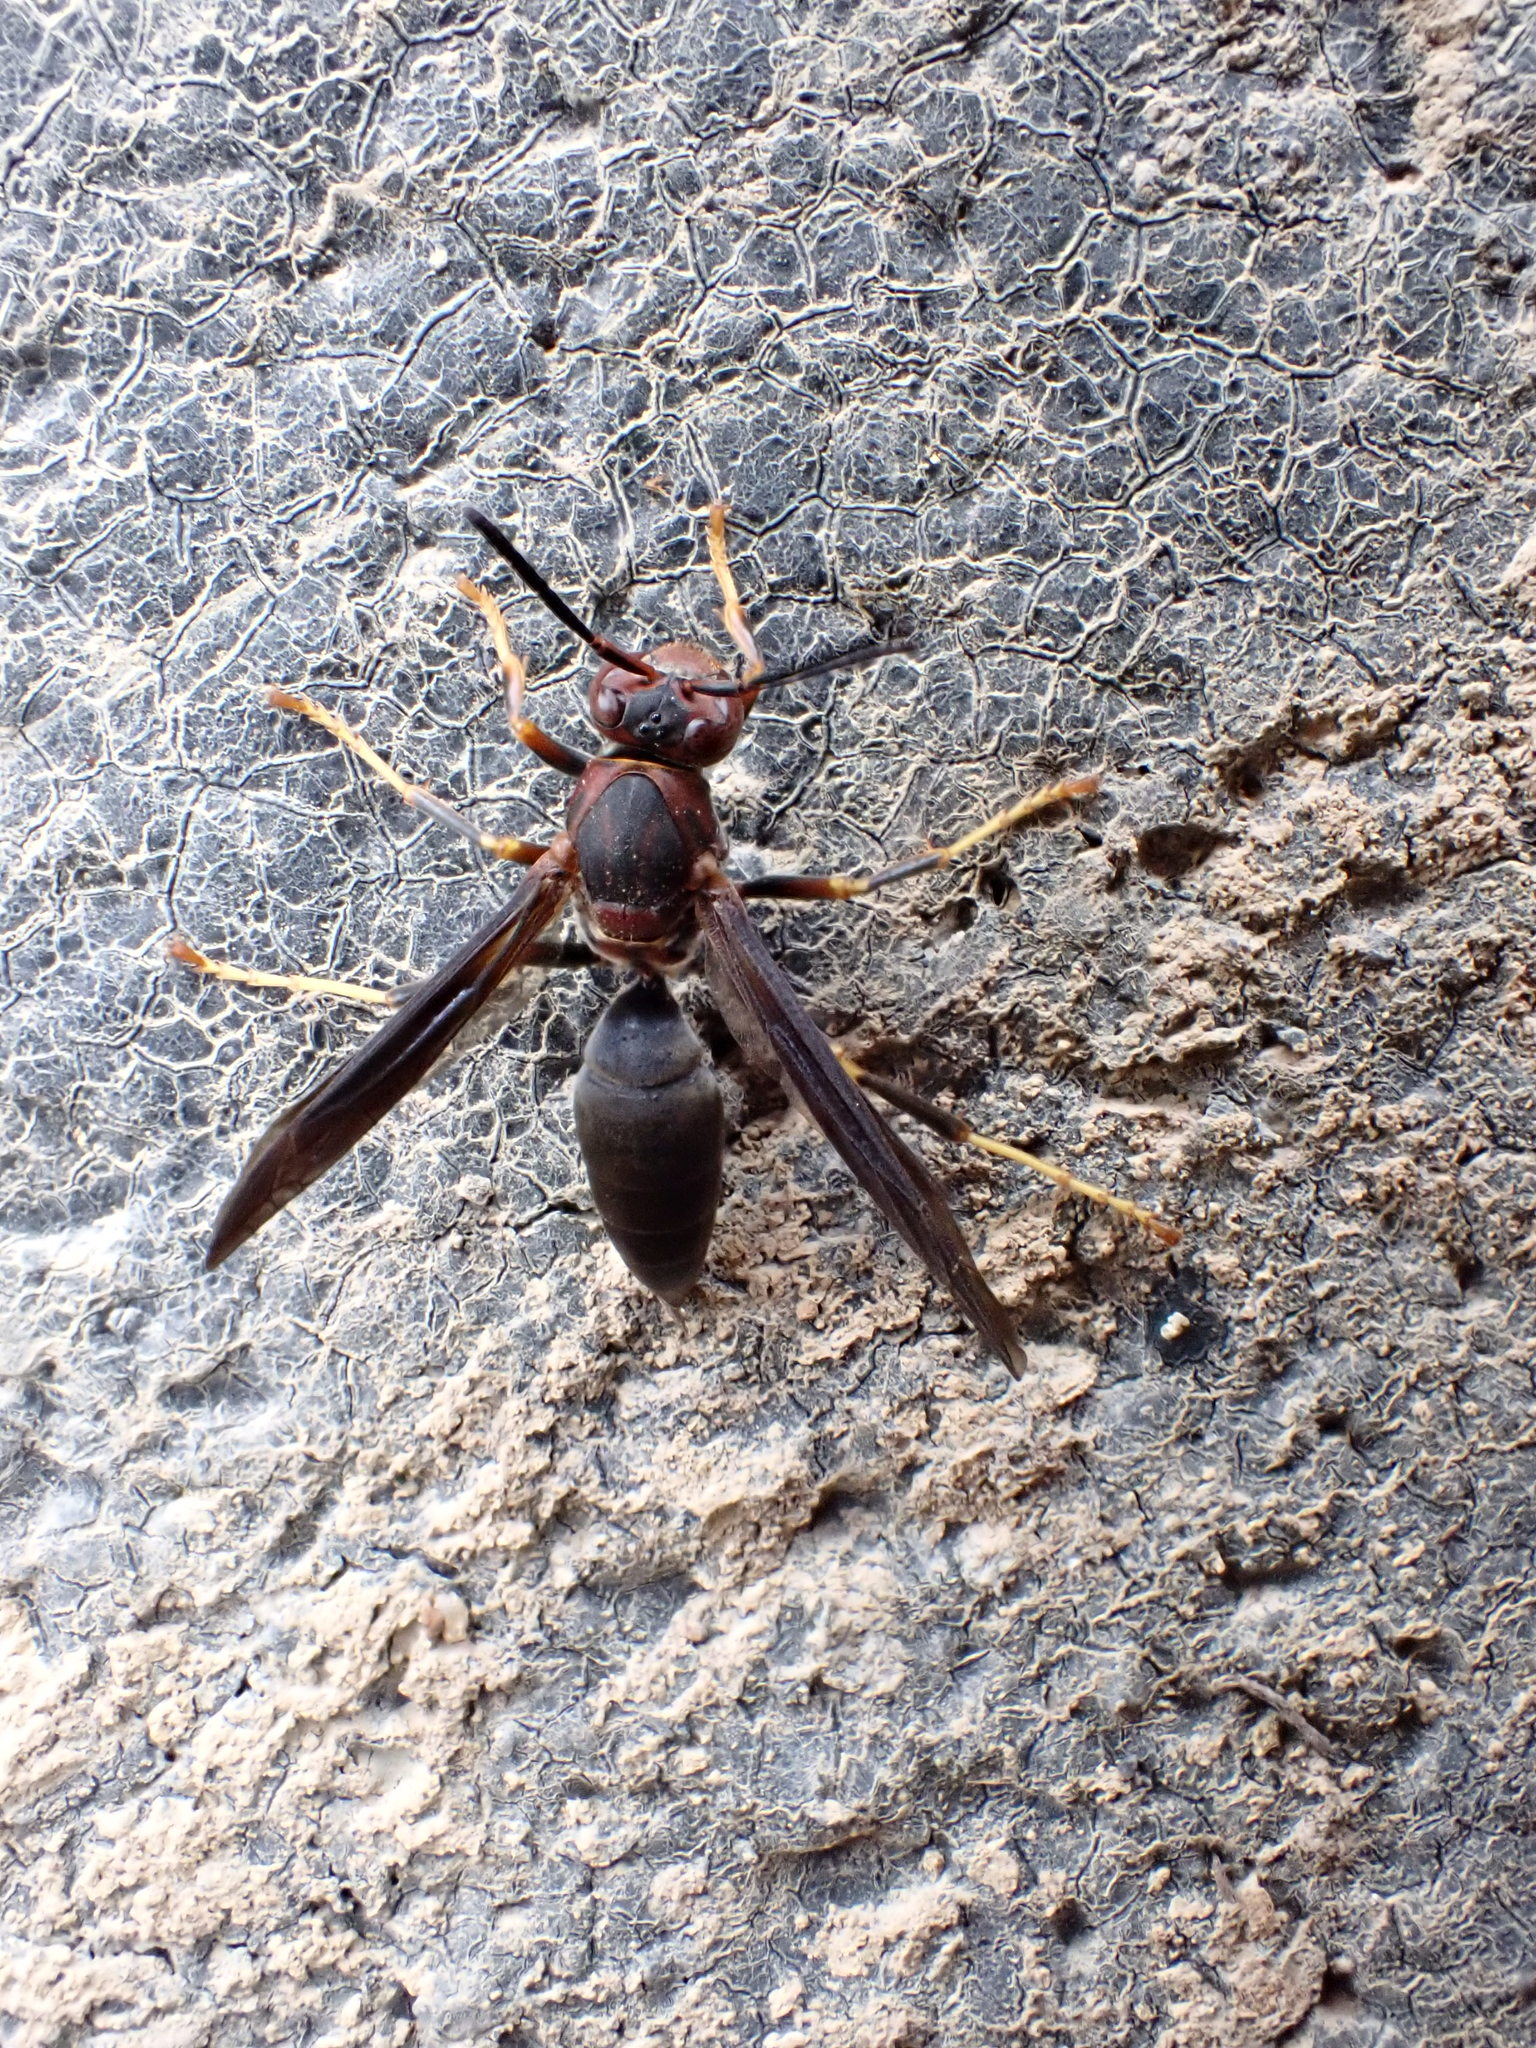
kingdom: Animalia
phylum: Arthropoda
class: Insecta
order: Hymenoptera
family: Eumenidae
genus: Polistes
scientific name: Polistes metricus
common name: Metric paper wasp
